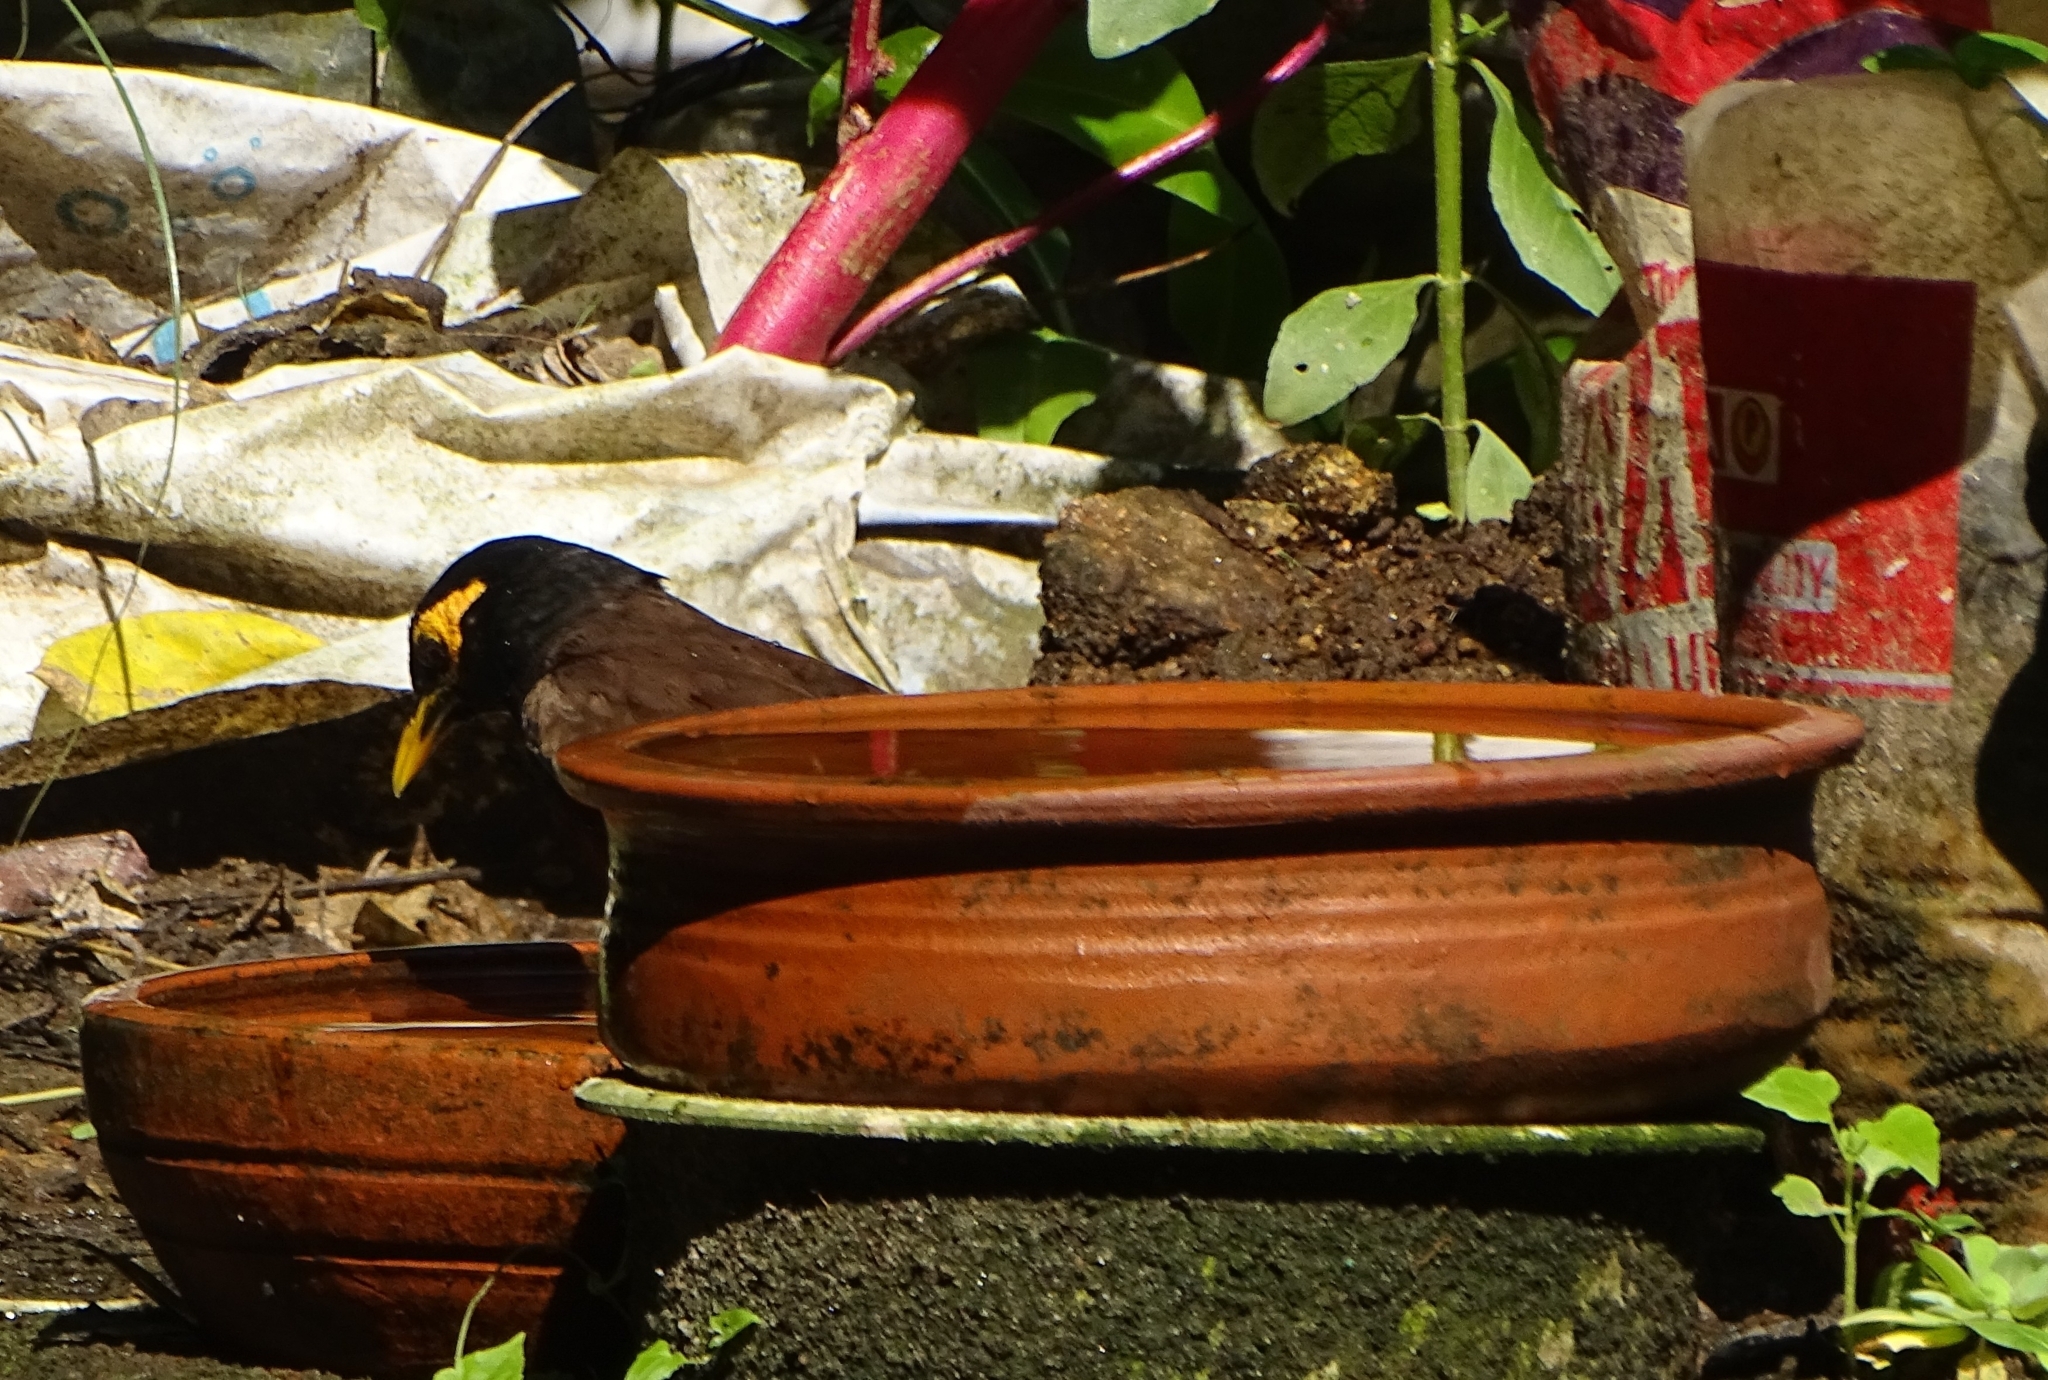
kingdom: Animalia
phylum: Chordata
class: Aves
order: Passeriformes
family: Sturnidae
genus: Acridotheres
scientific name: Acridotheres tristis
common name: Common myna
